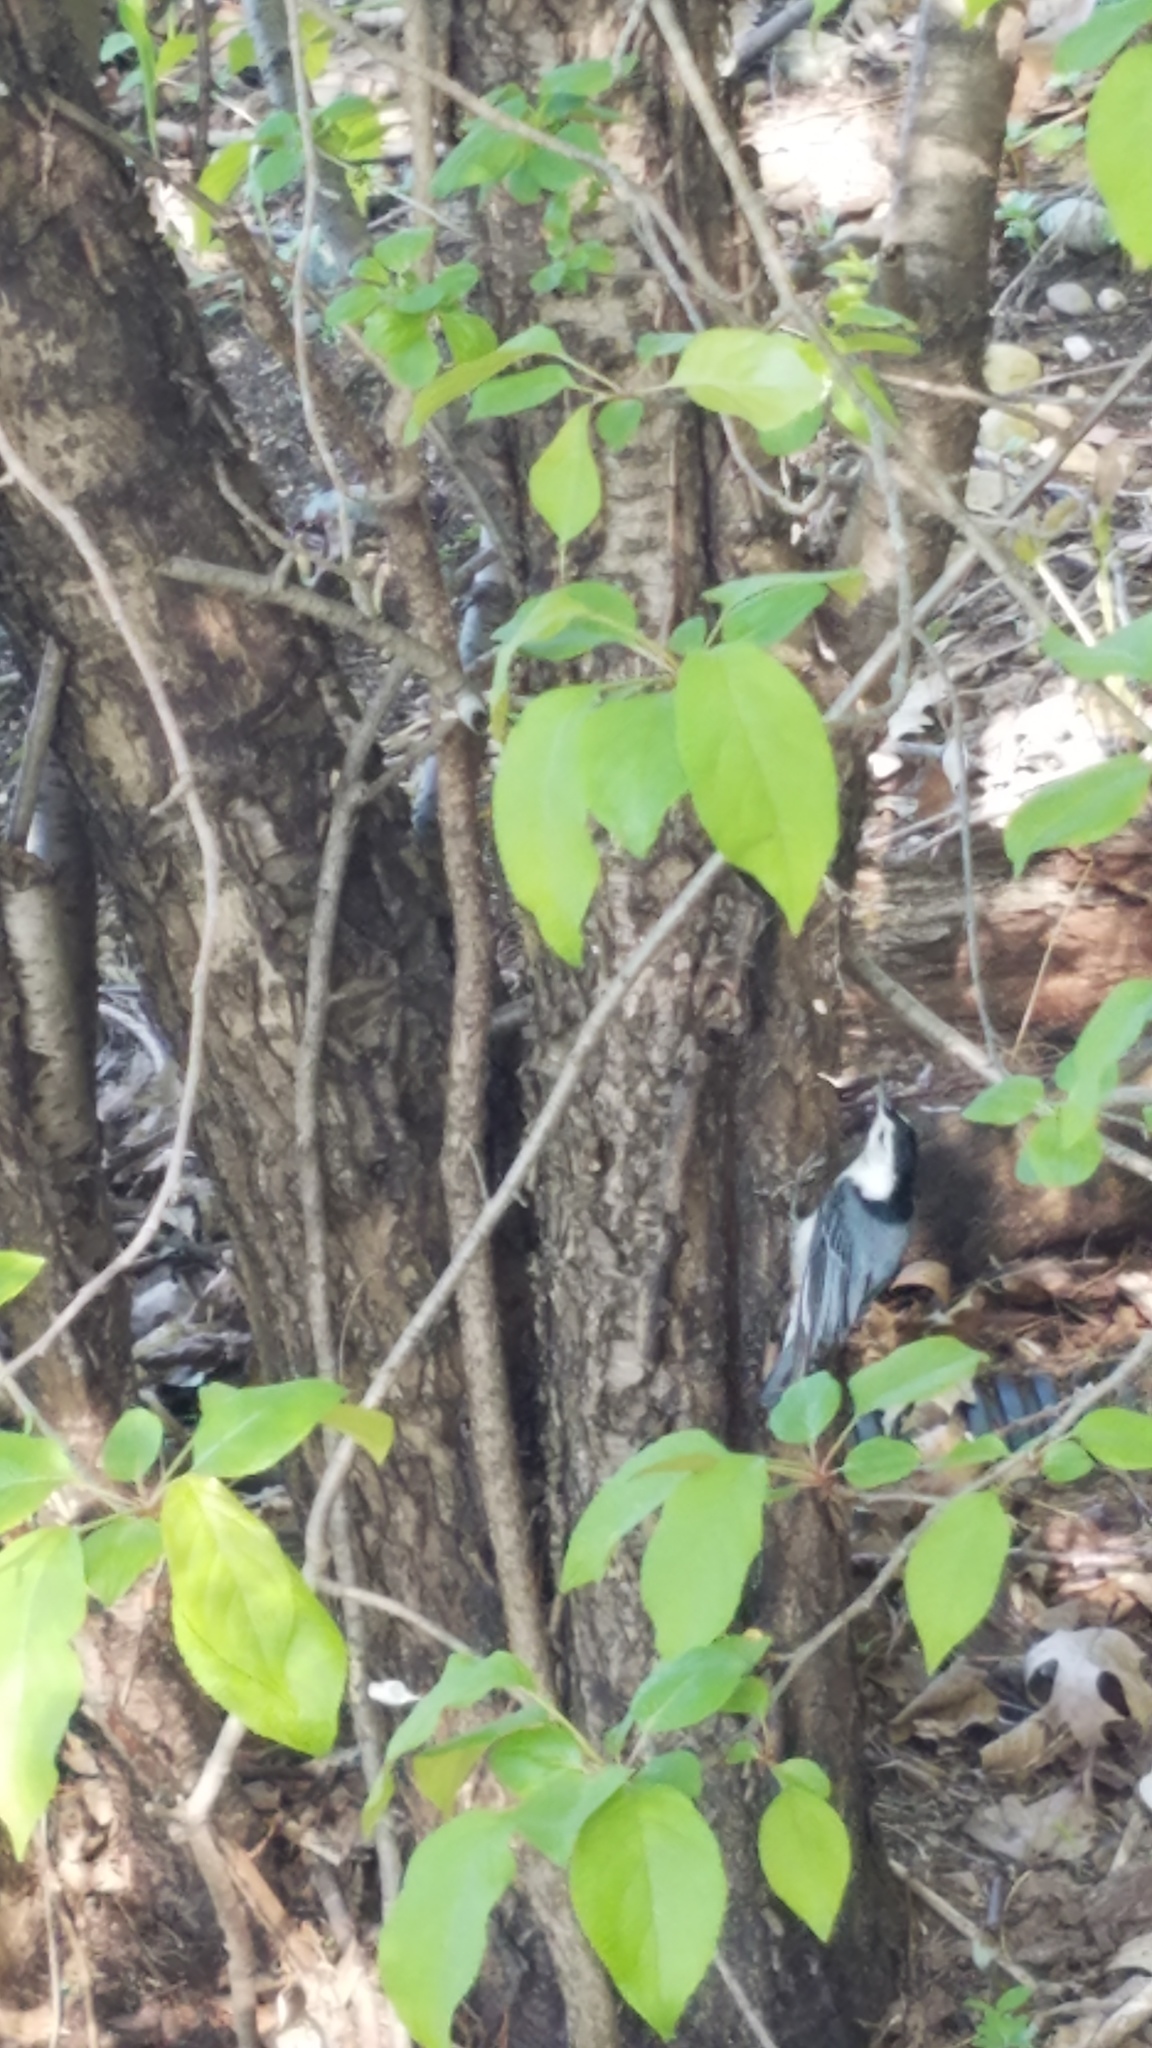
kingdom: Animalia
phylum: Chordata
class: Aves
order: Passeriformes
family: Sittidae
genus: Sitta
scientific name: Sitta carolinensis
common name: White-breasted nuthatch
